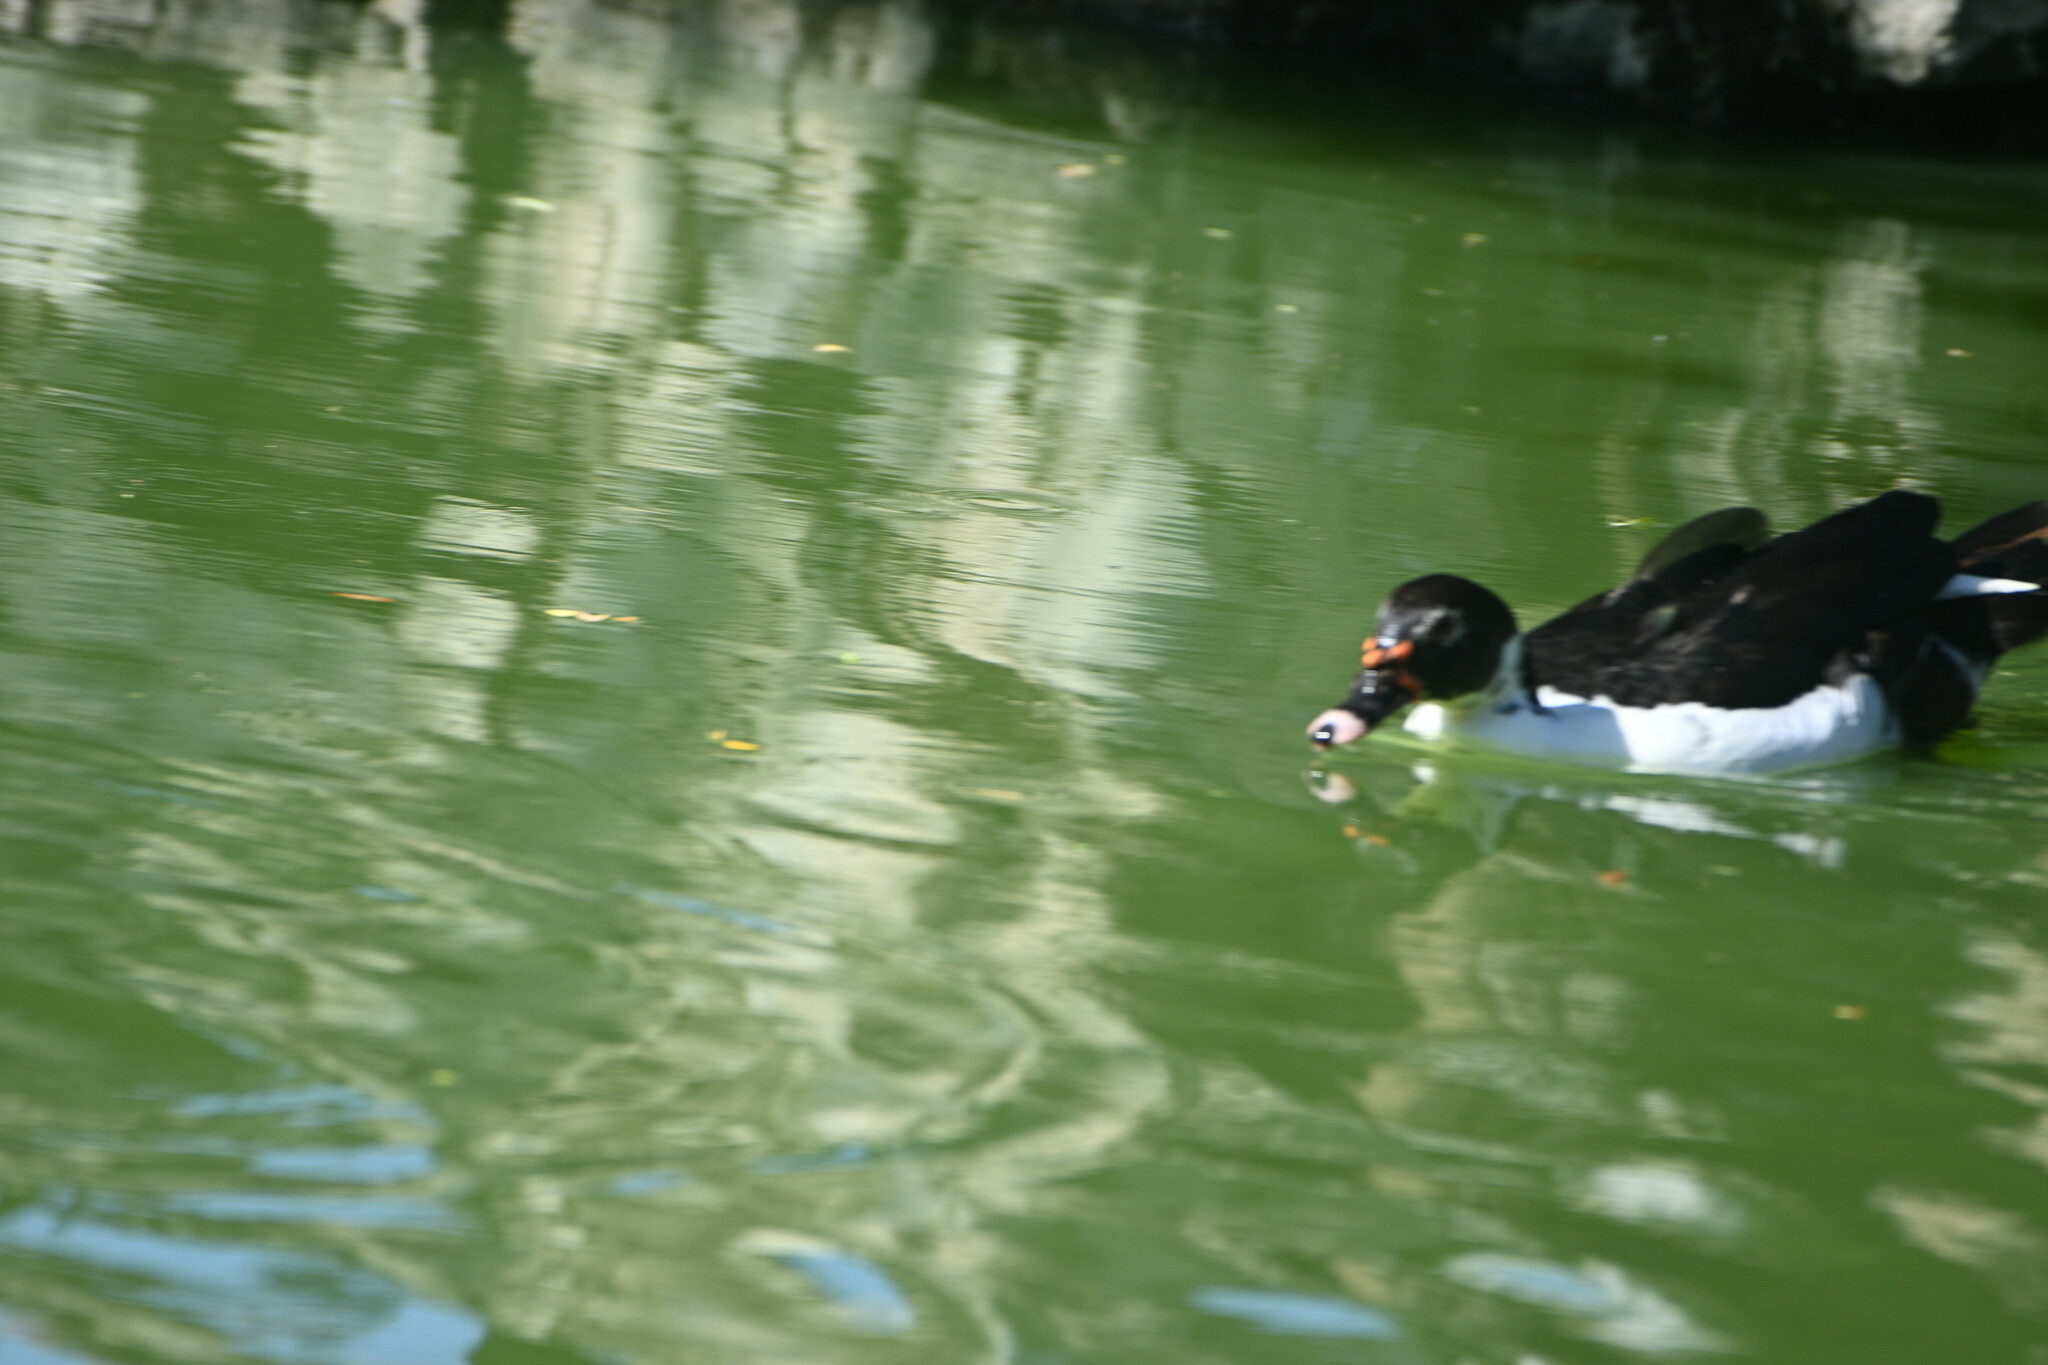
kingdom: Animalia
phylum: Chordata
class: Aves
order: Anseriformes
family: Anatidae
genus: Cairina
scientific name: Cairina moschata
